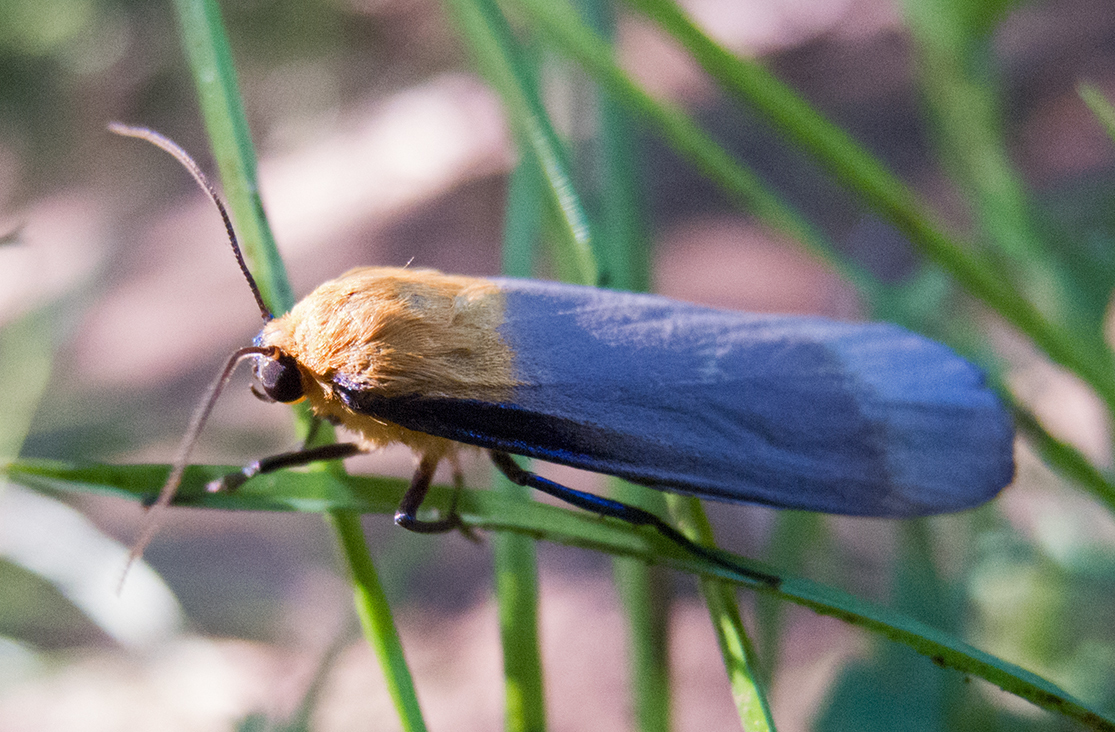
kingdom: Animalia
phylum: Arthropoda
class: Insecta
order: Lepidoptera
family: Erebidae
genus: Lithosia
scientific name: Lithosia quadra
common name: Four-spotted footman
